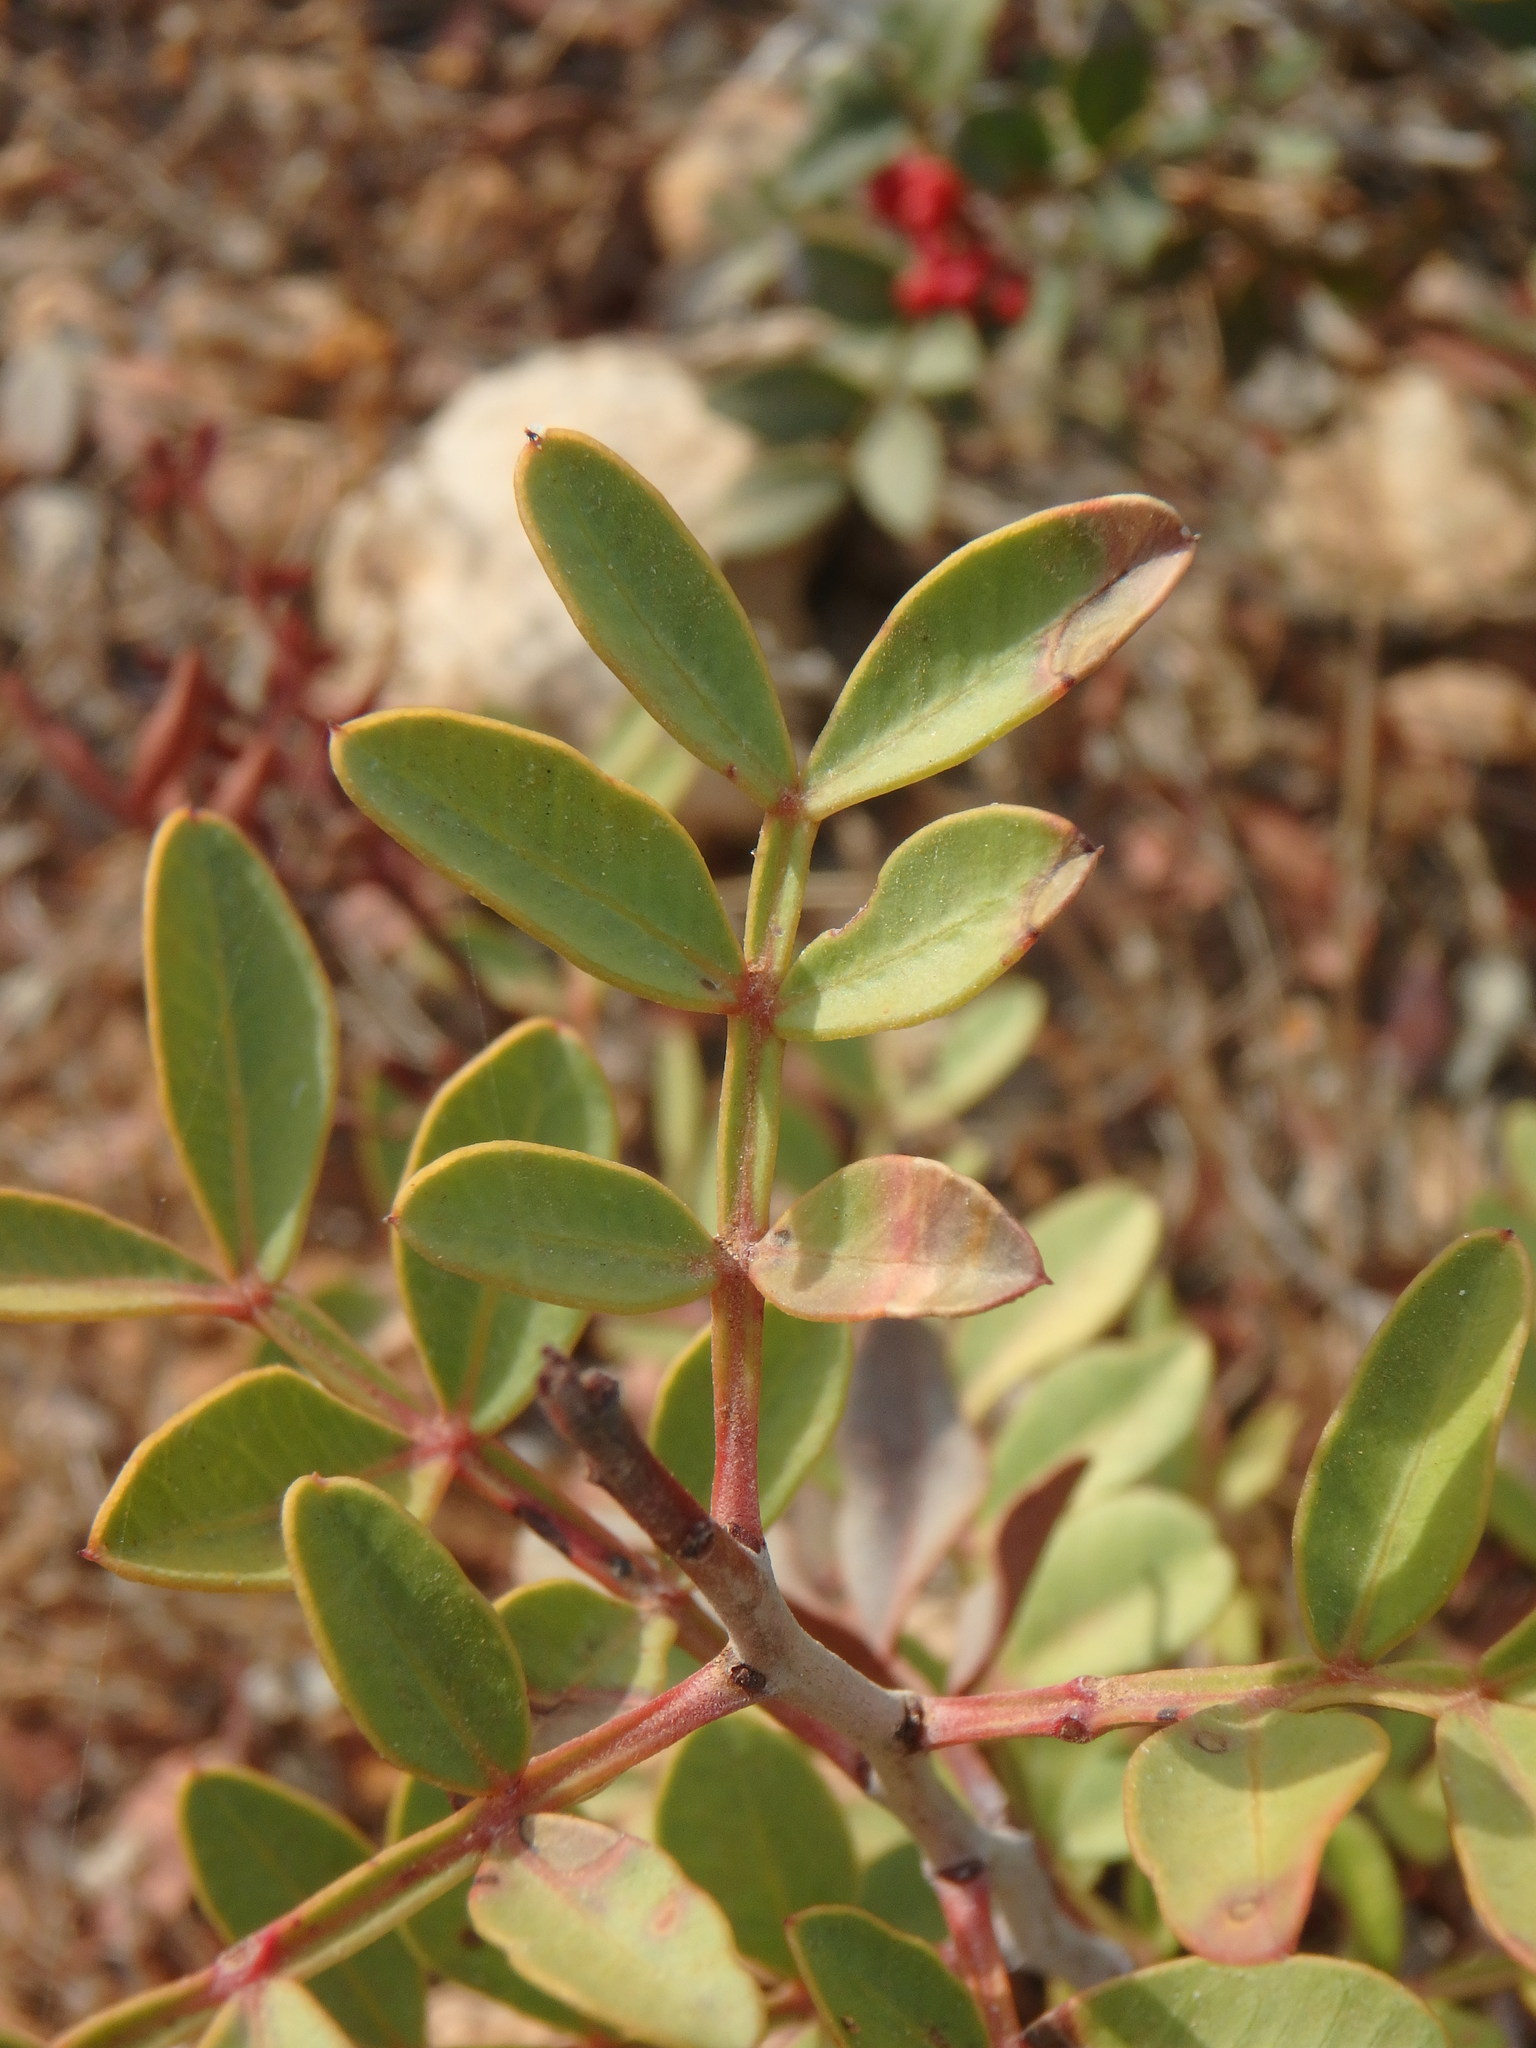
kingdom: Plantae
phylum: Tracheophyta
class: Magnoliopsida
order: Sapindales
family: Anacardiaceae
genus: Pistacia
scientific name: Pistacia lentiscus
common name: Lentisk
